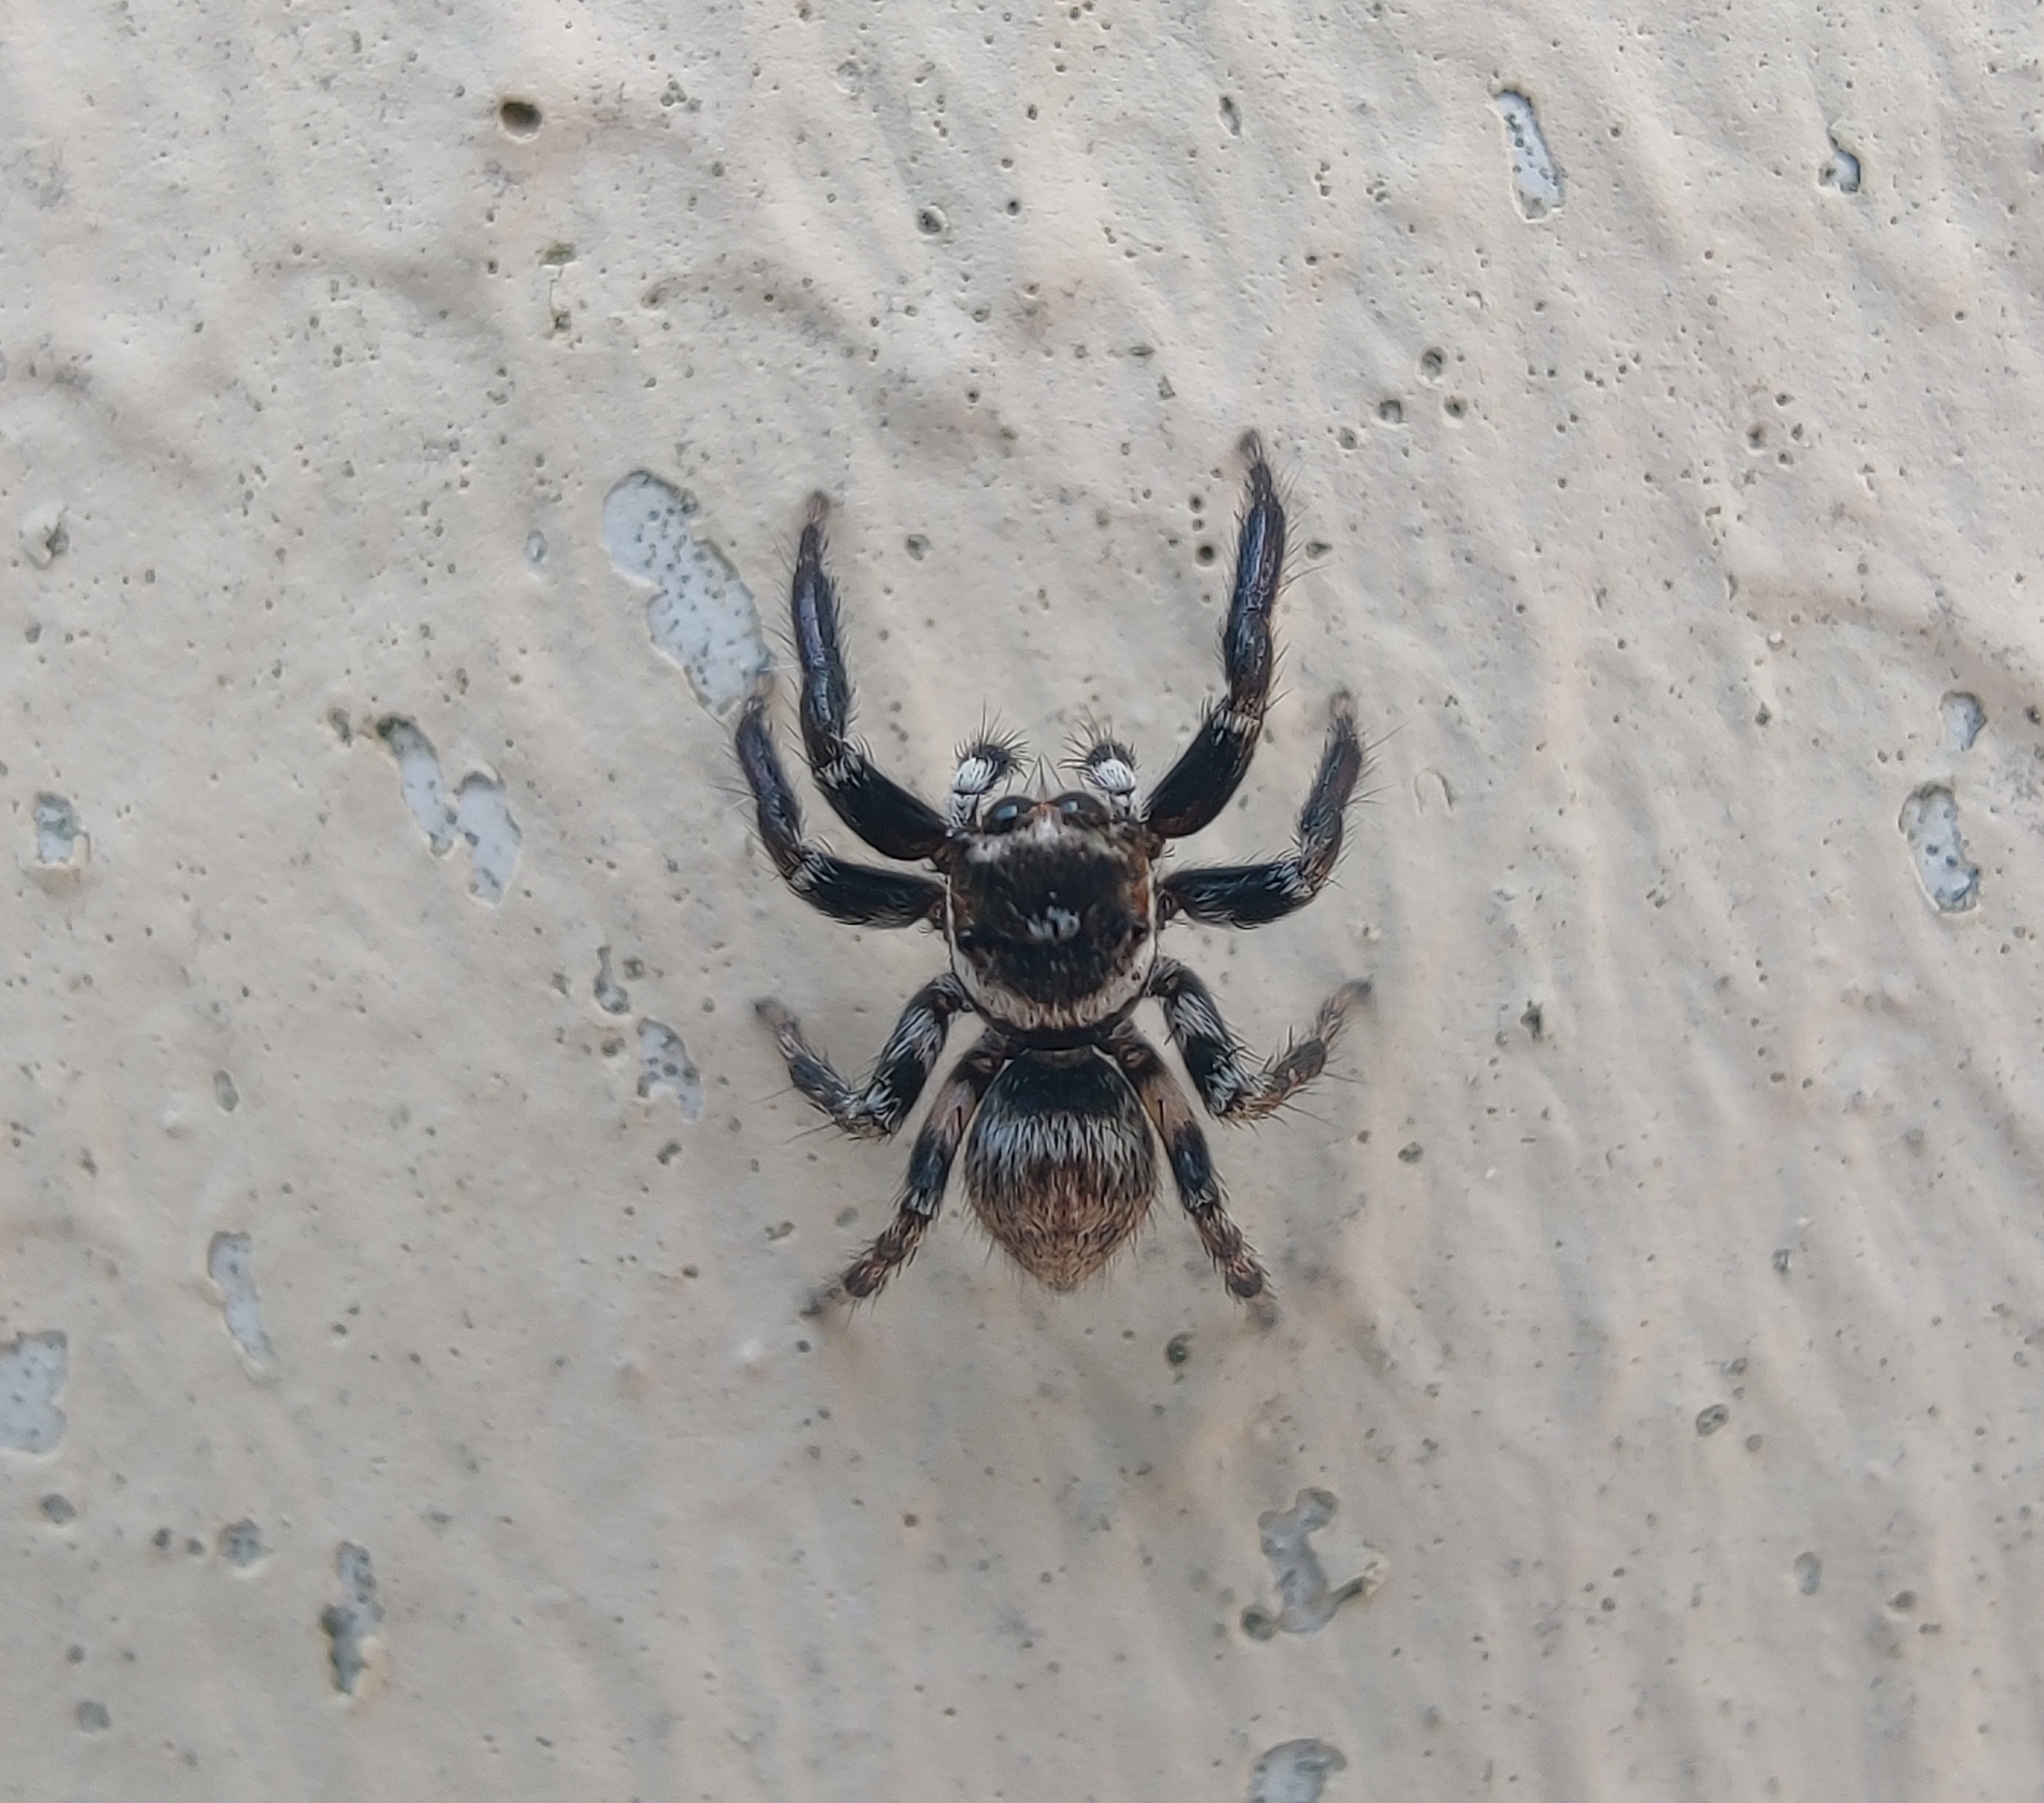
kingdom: Animalia
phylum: Arthropoda
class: Arachnida
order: Araneae
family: Salticidae
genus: Evarcha
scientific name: Evarcha jucunda
